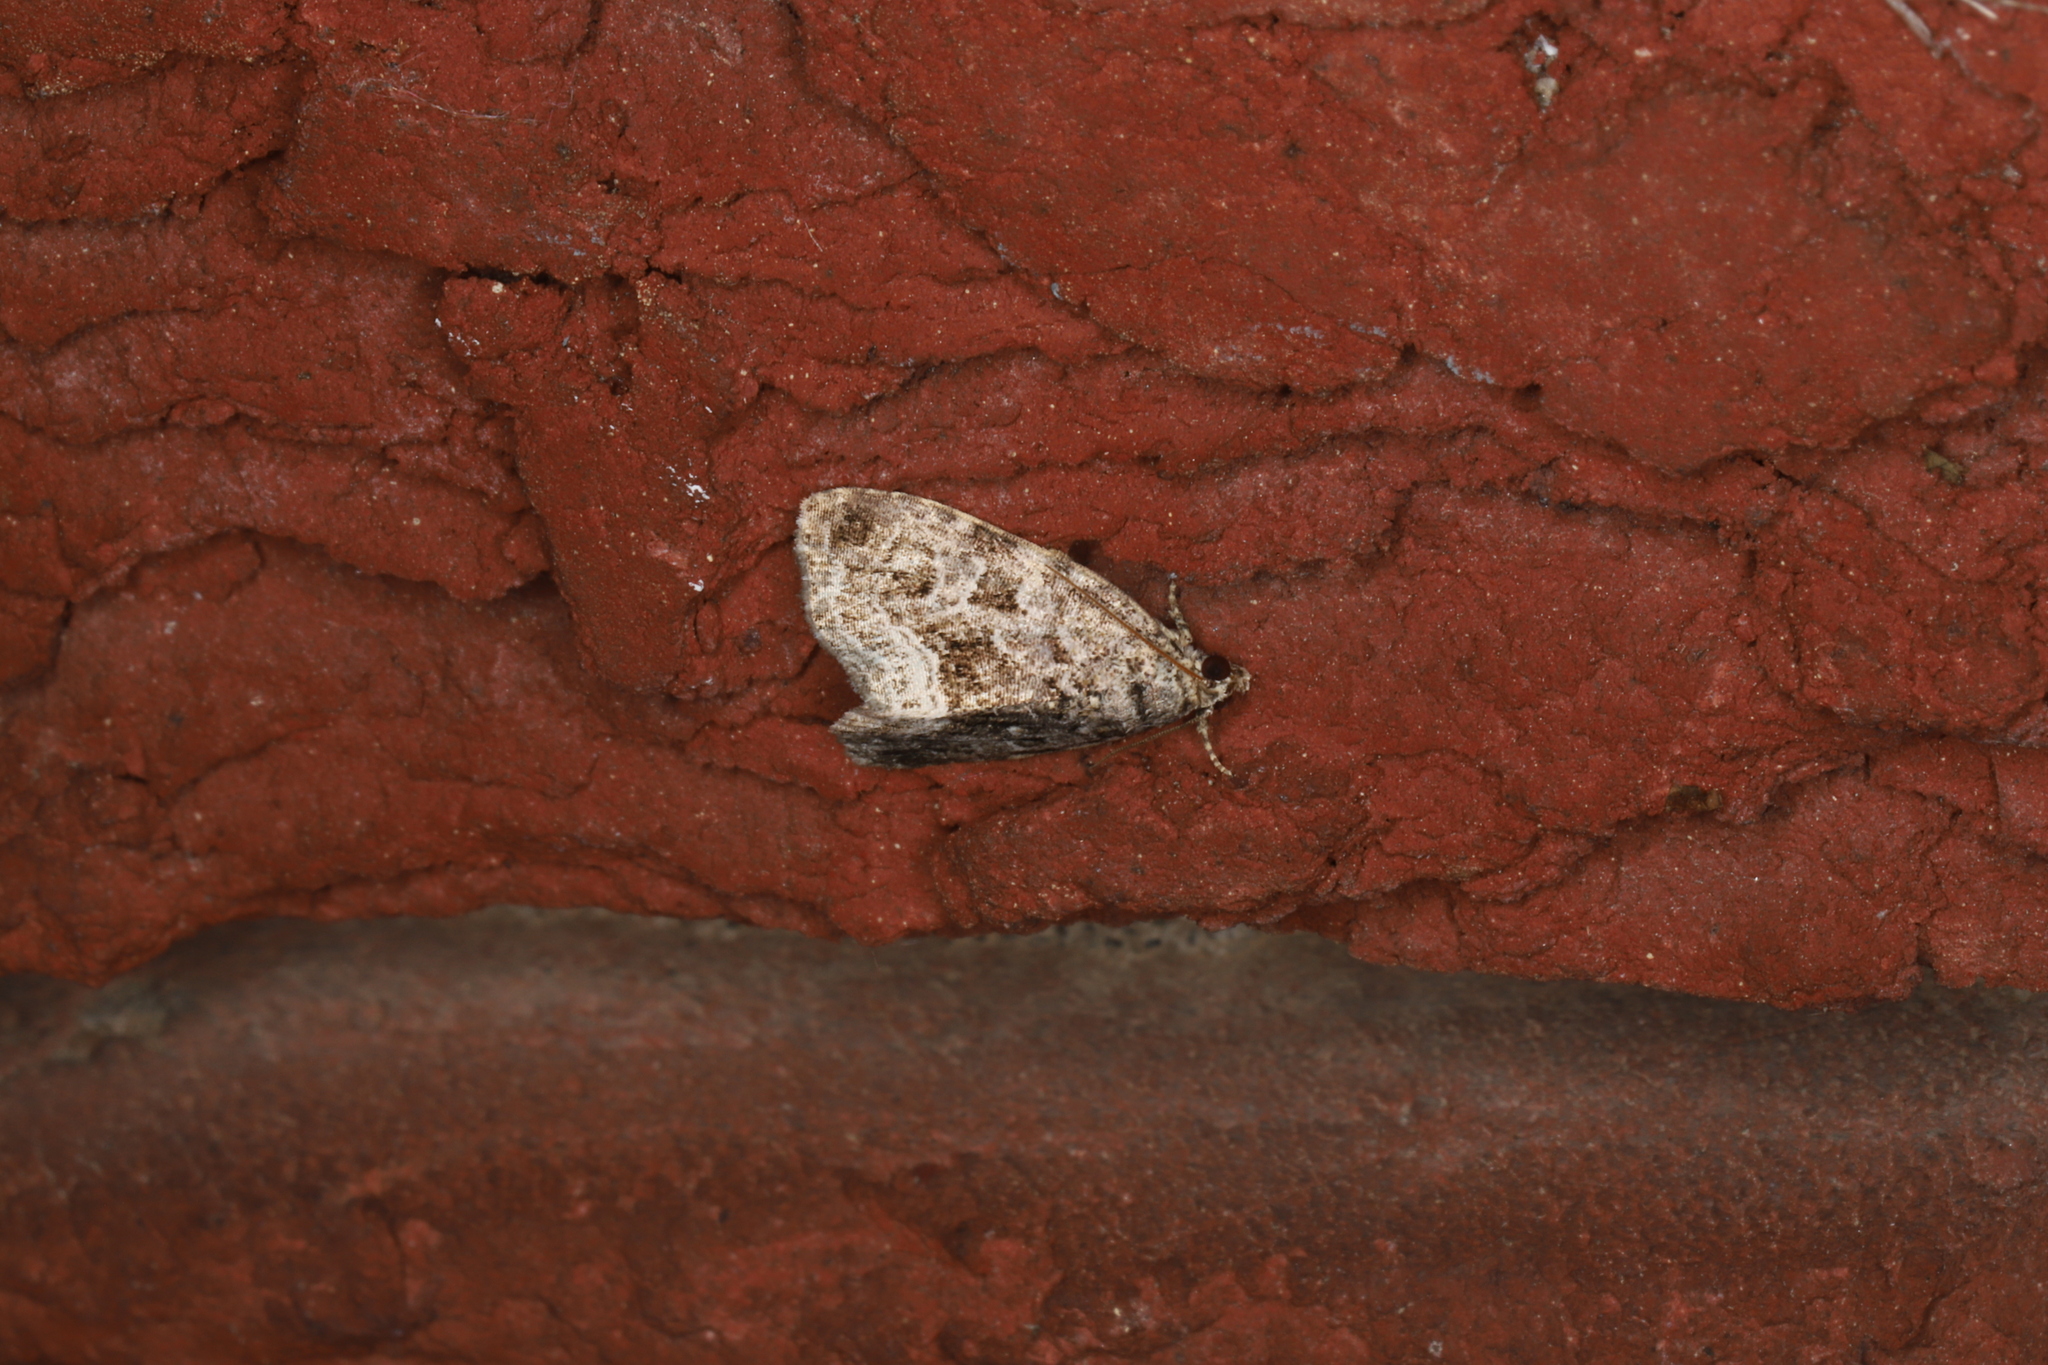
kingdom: Animalia
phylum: Arthropoda
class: Insecta
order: Lepidoptera
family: Noctuidae
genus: Protodeltote
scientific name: Protodeltote muscosula
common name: Large mossy glyph
